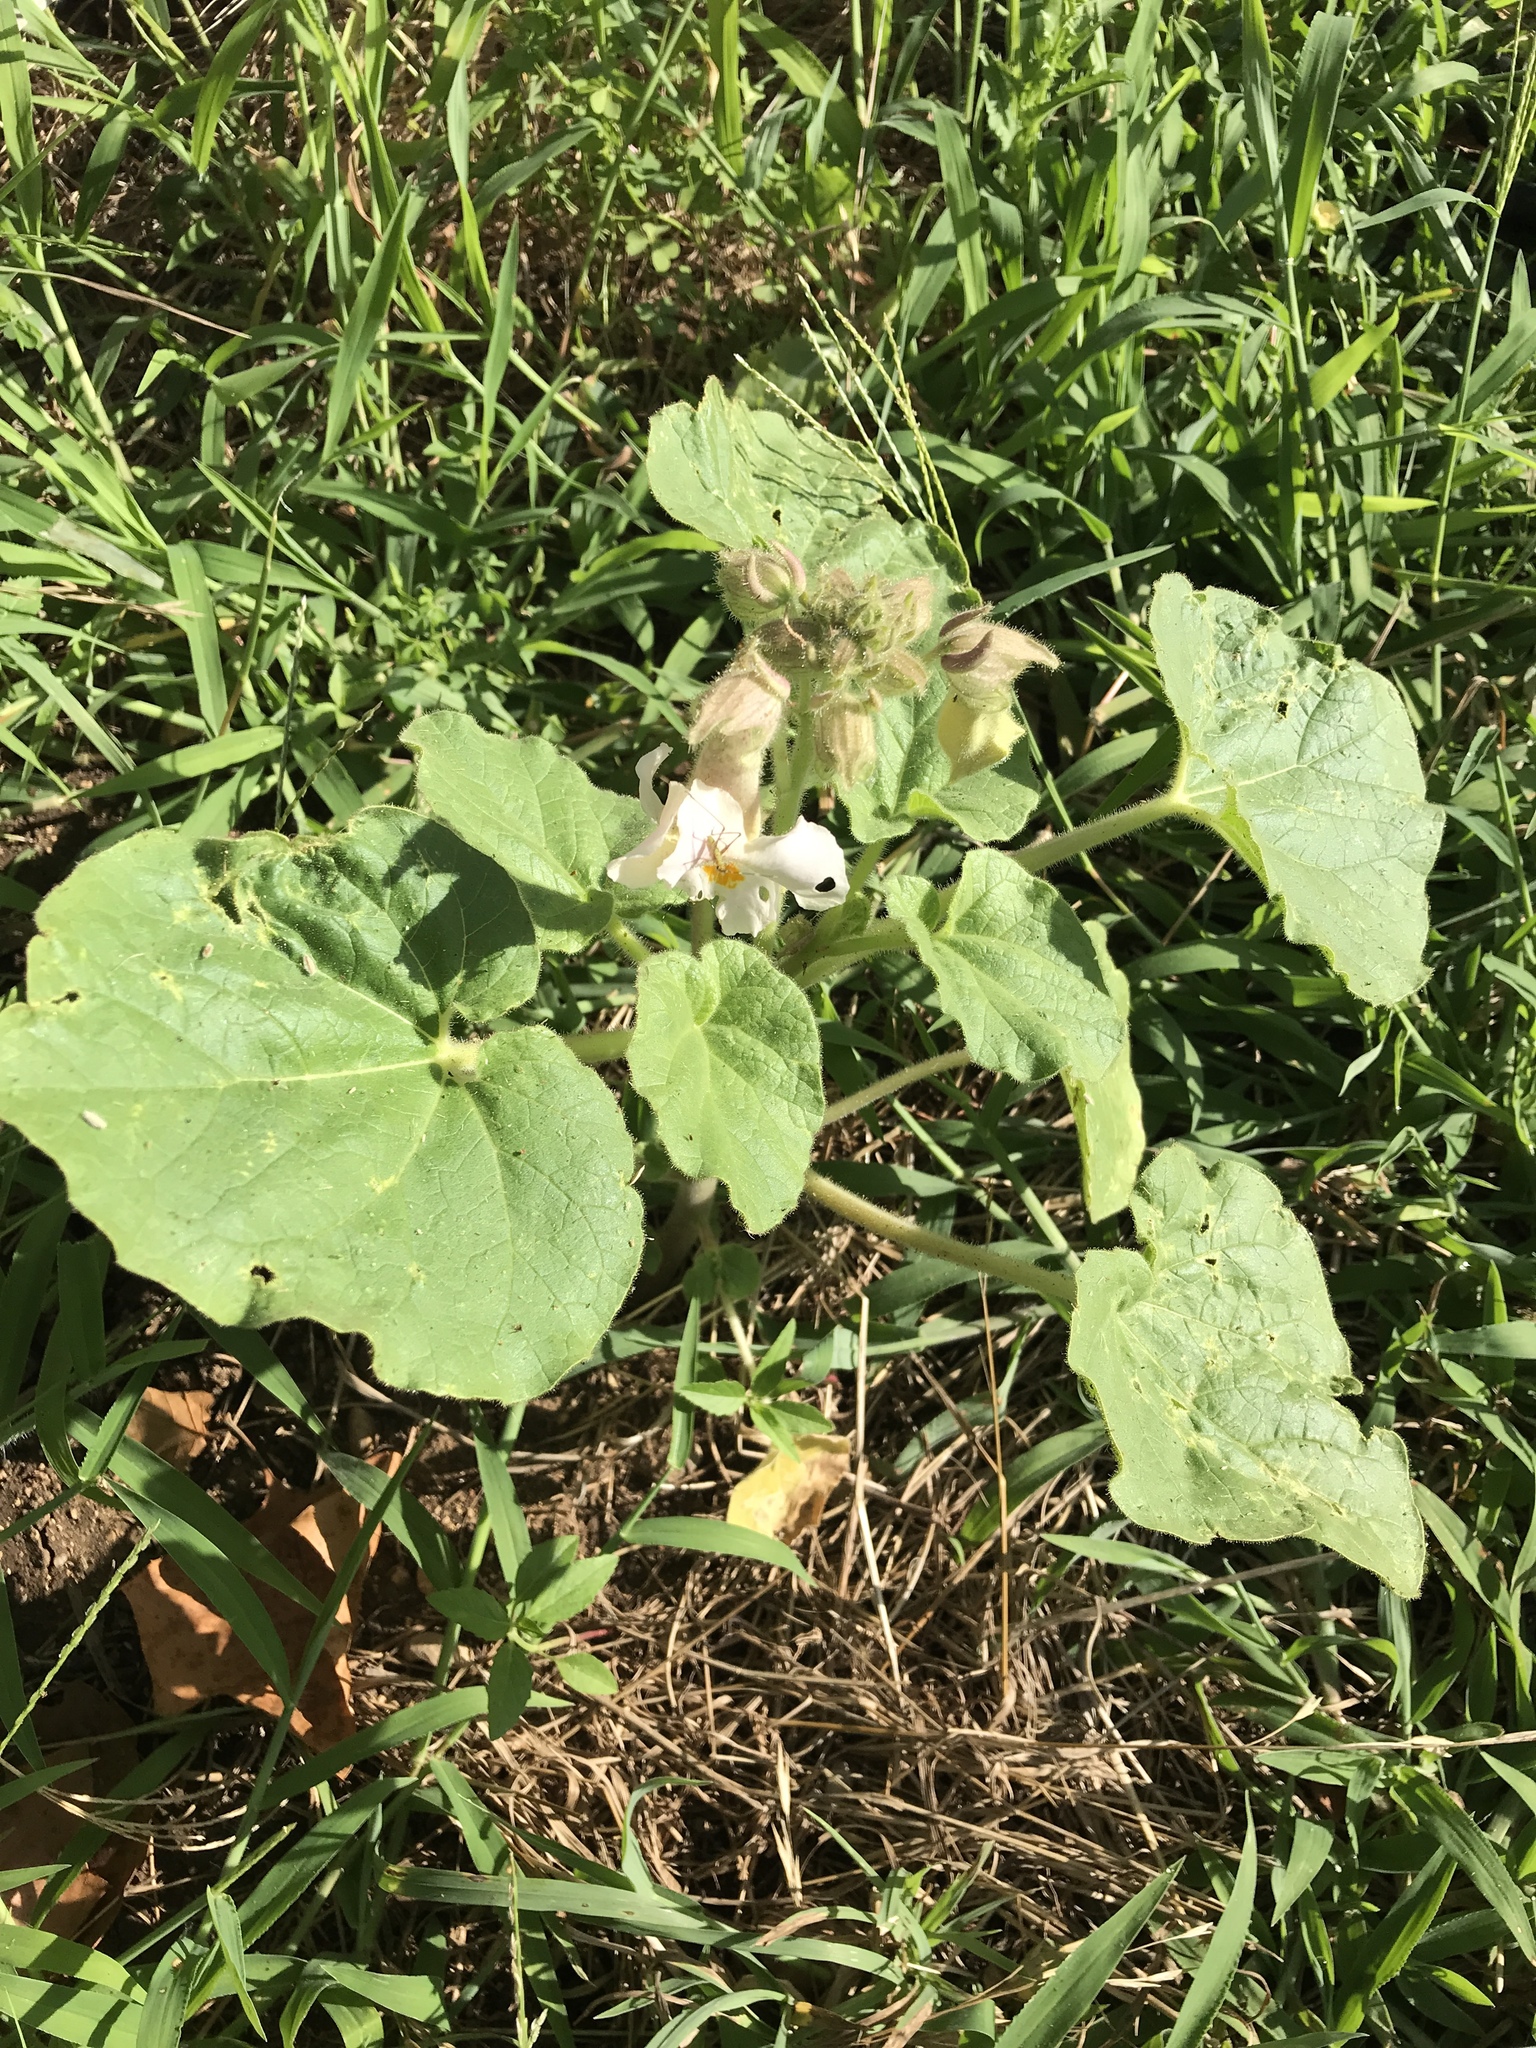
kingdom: Plantae
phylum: Tracheophyta
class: Magnoliopsida
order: Lamiales
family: Martyniaceae
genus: Proboscidea
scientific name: Proboscidea louisianica
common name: Elephant tusks
